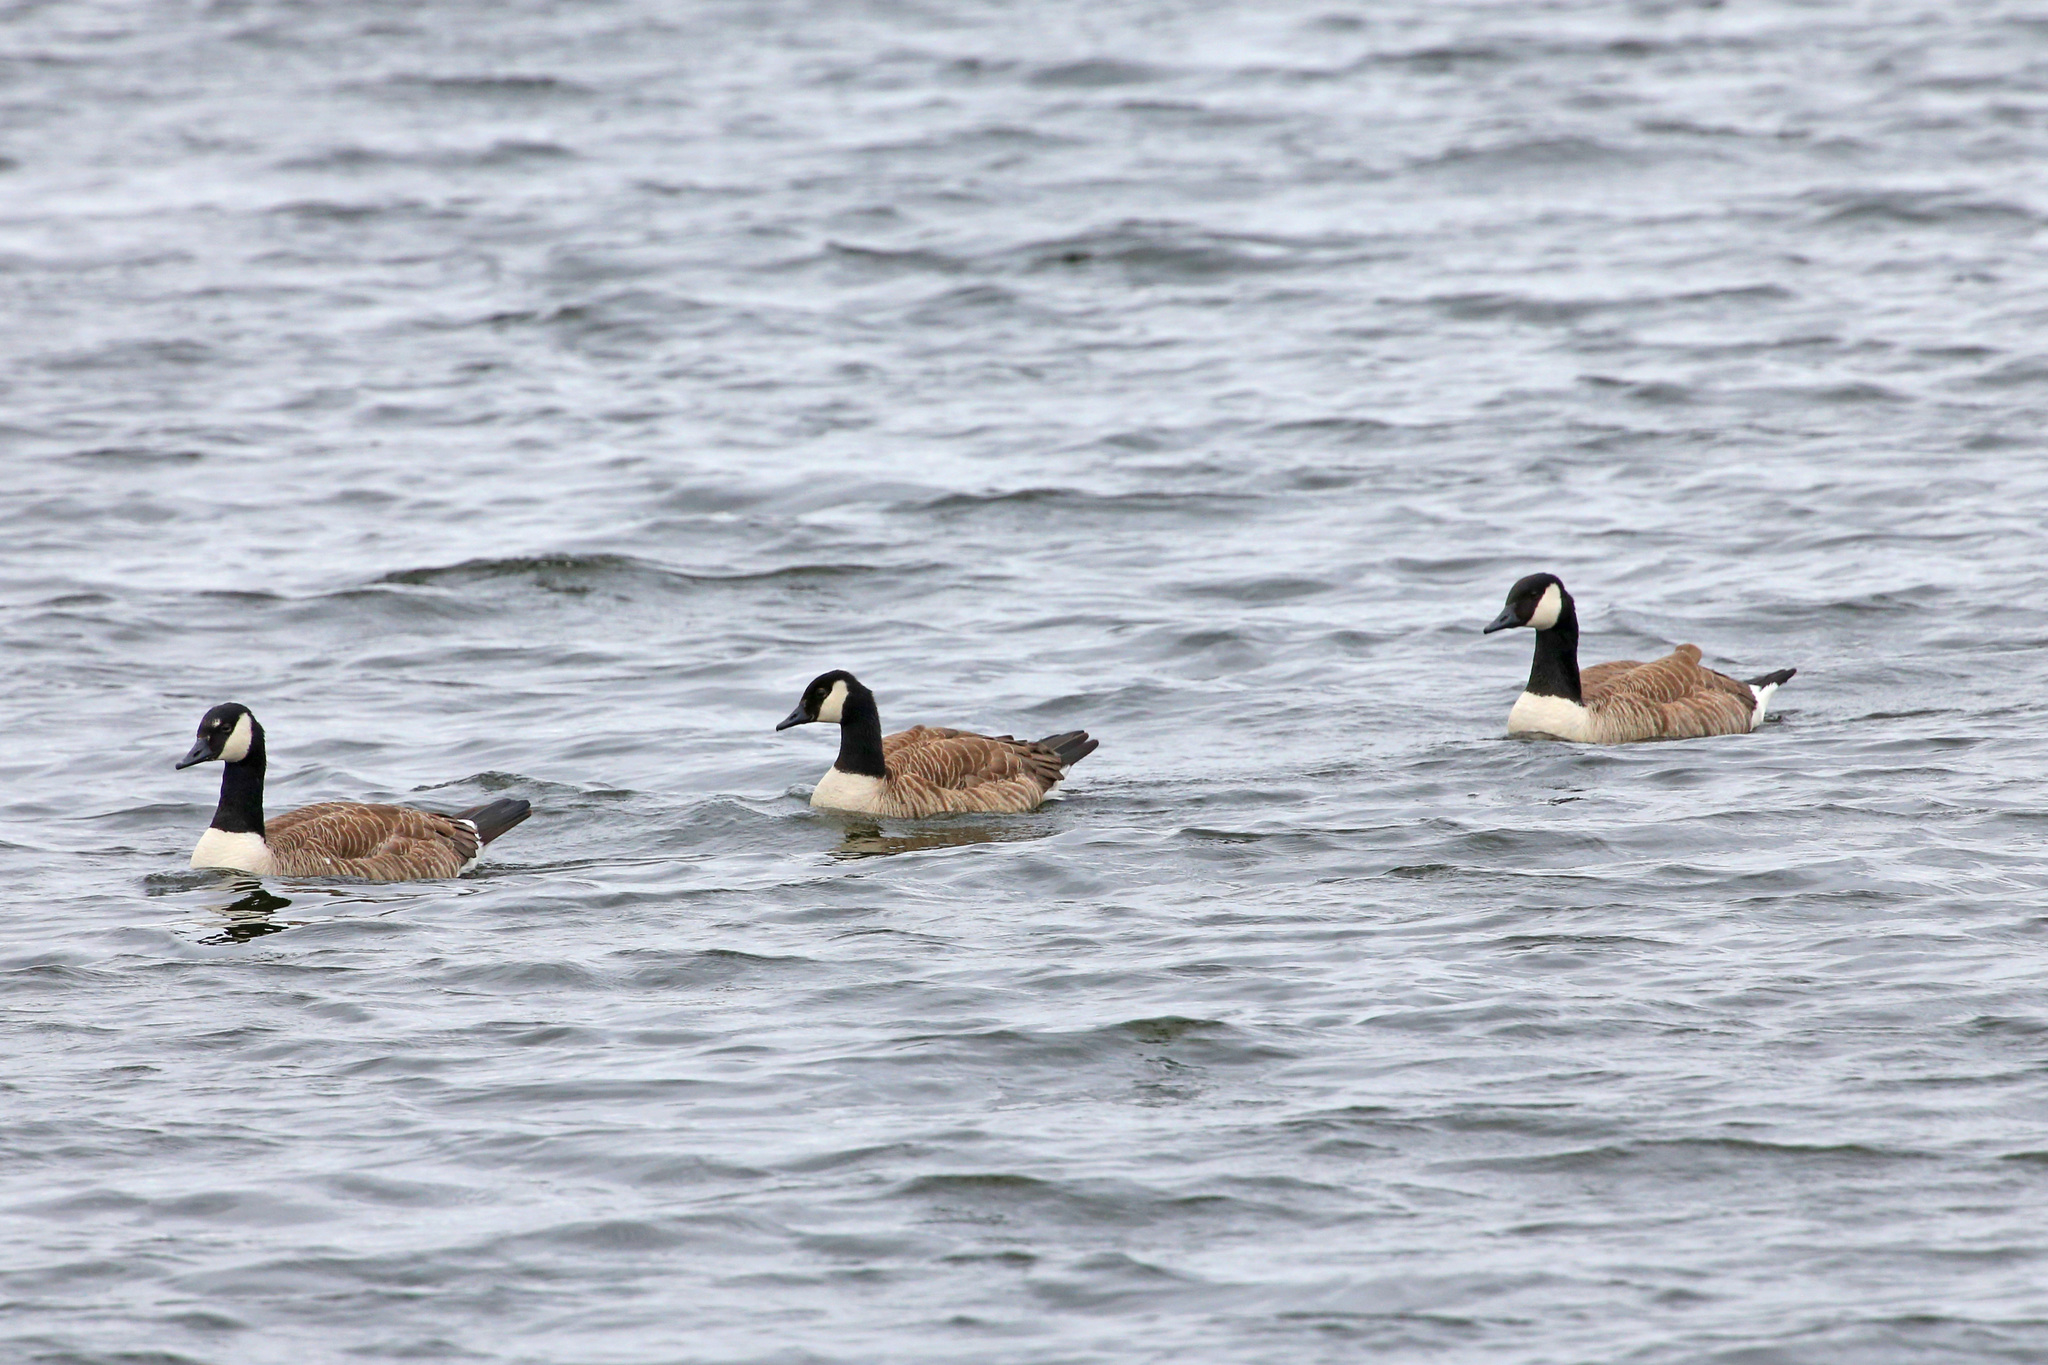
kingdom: Animalia
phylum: Chordata
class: Aves
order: Anseriformes
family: Anatidae
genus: Branta
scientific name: Branta canadensis
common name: Canada goose
